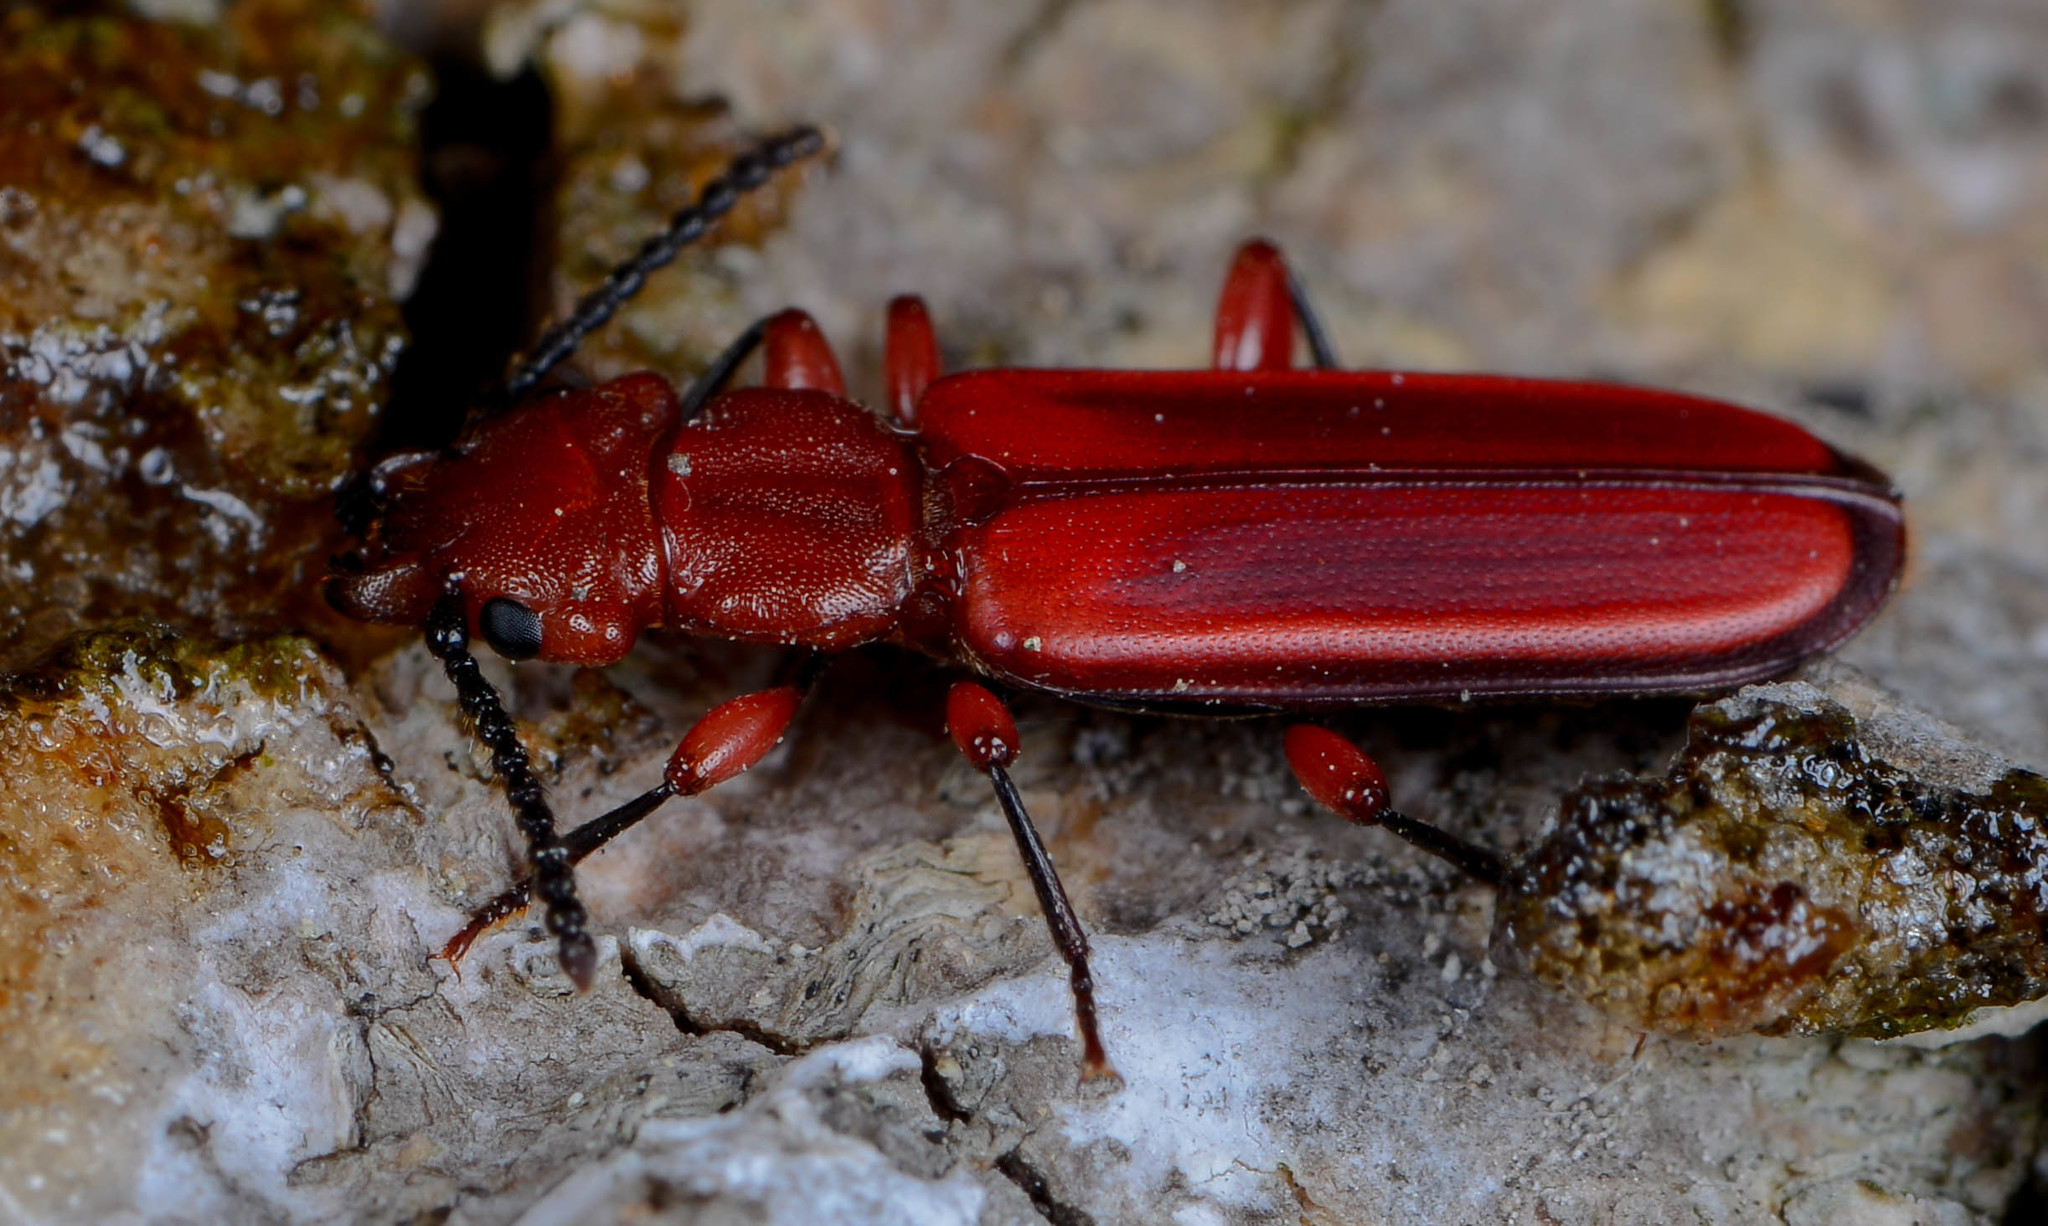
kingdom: Animalia
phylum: Arthropoda
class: Insecta
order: Coleoptera
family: Cucujidae
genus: Cucujus
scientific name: Cucujus clavipes
